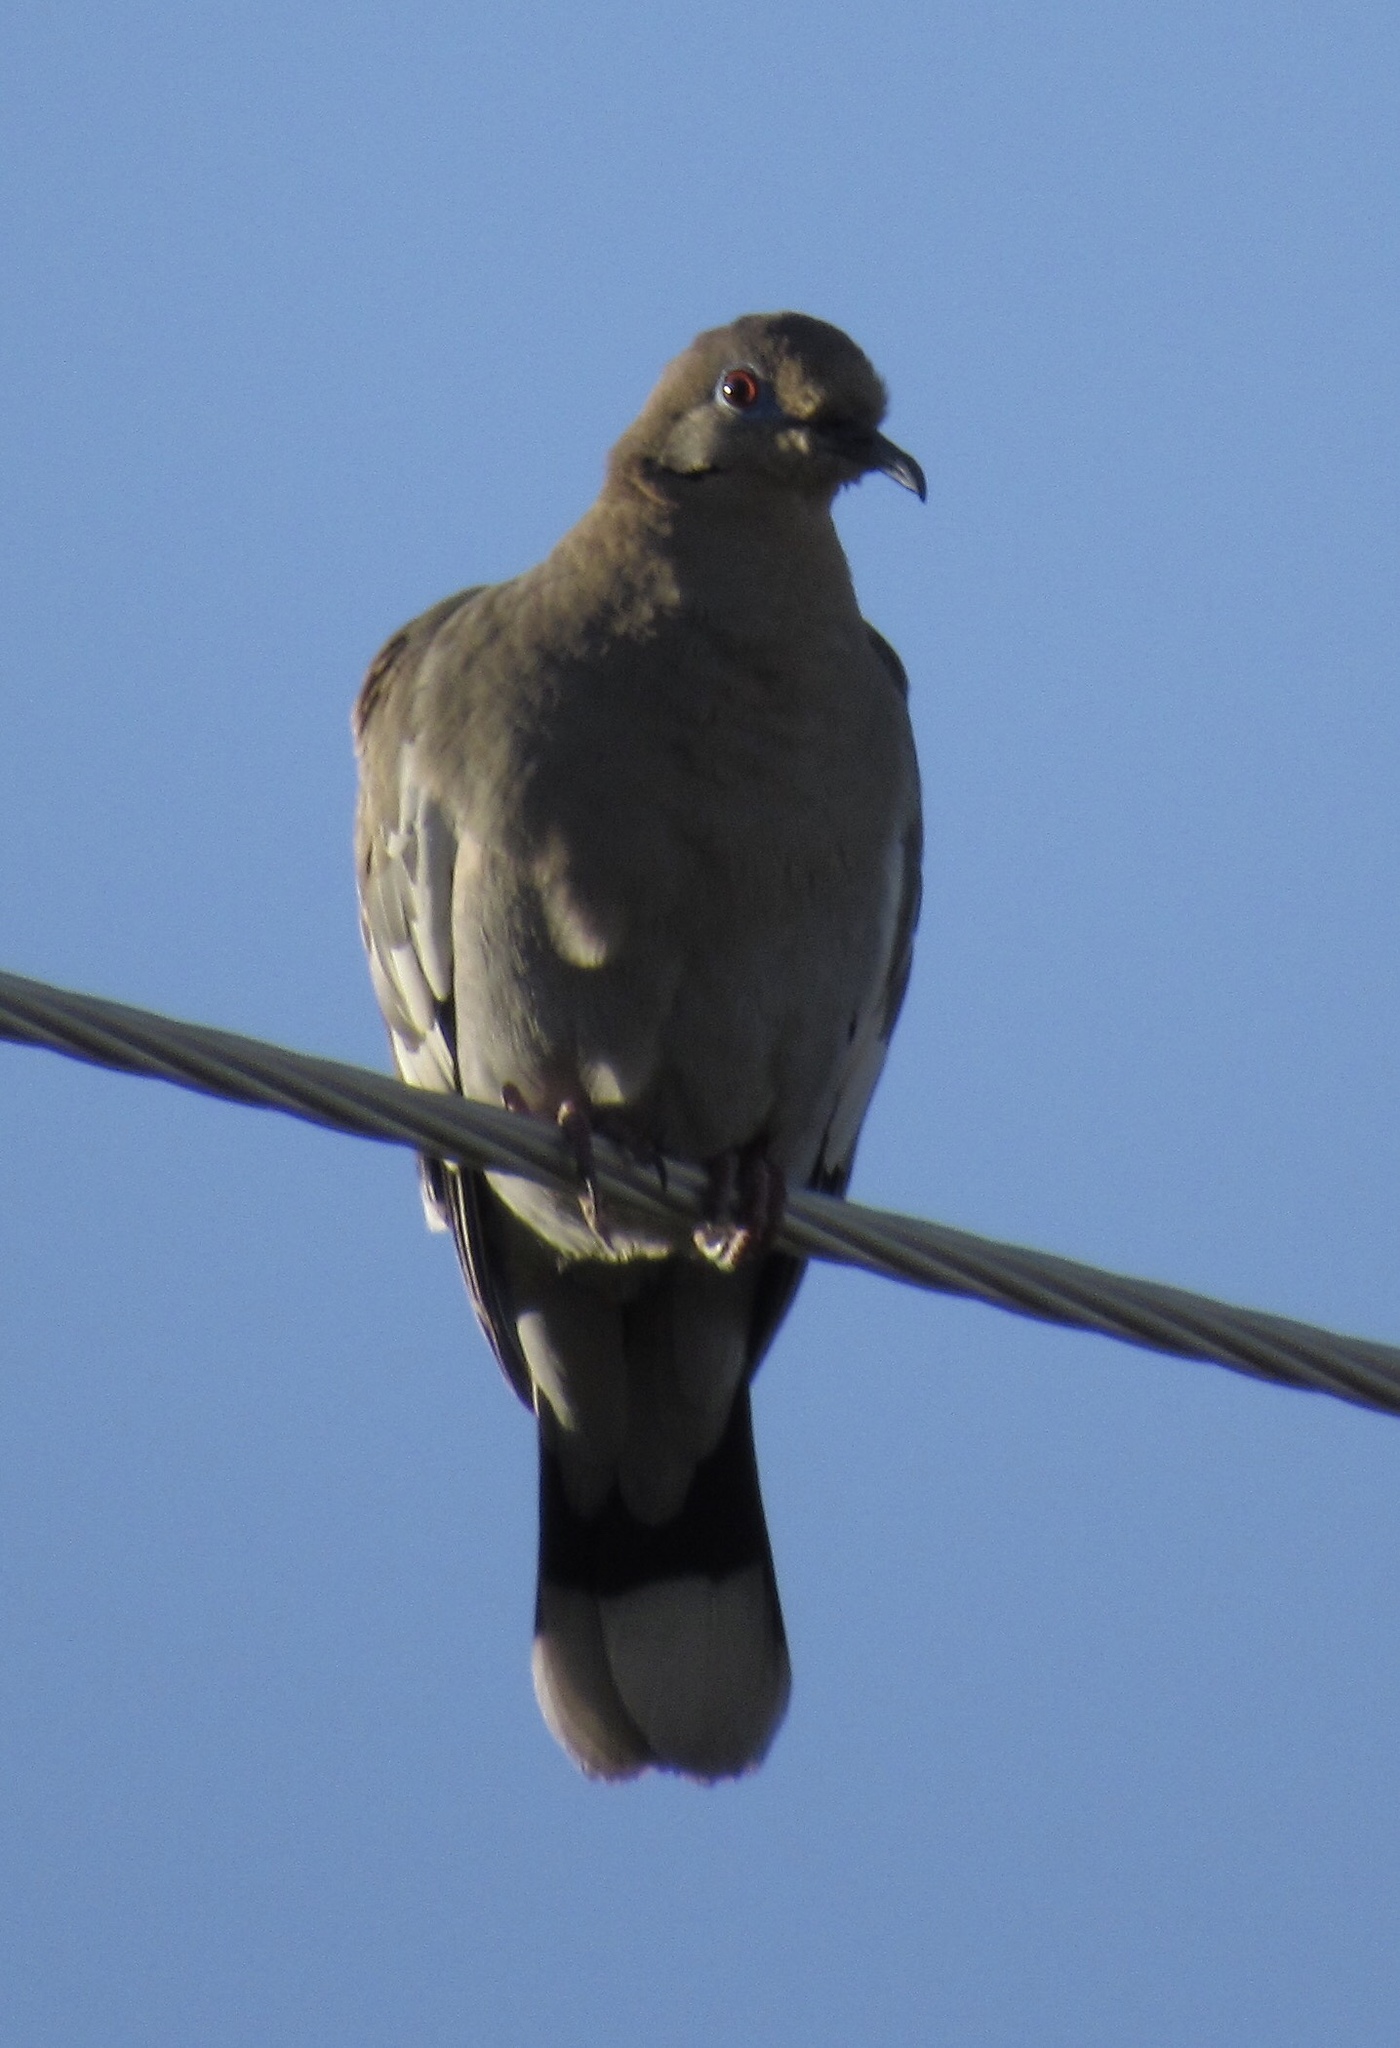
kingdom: Animalia
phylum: Chordata
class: Aves
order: Columbiformes
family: Columbidae
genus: Zenaida
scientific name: Zenaida asiatica
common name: White-winged dove
